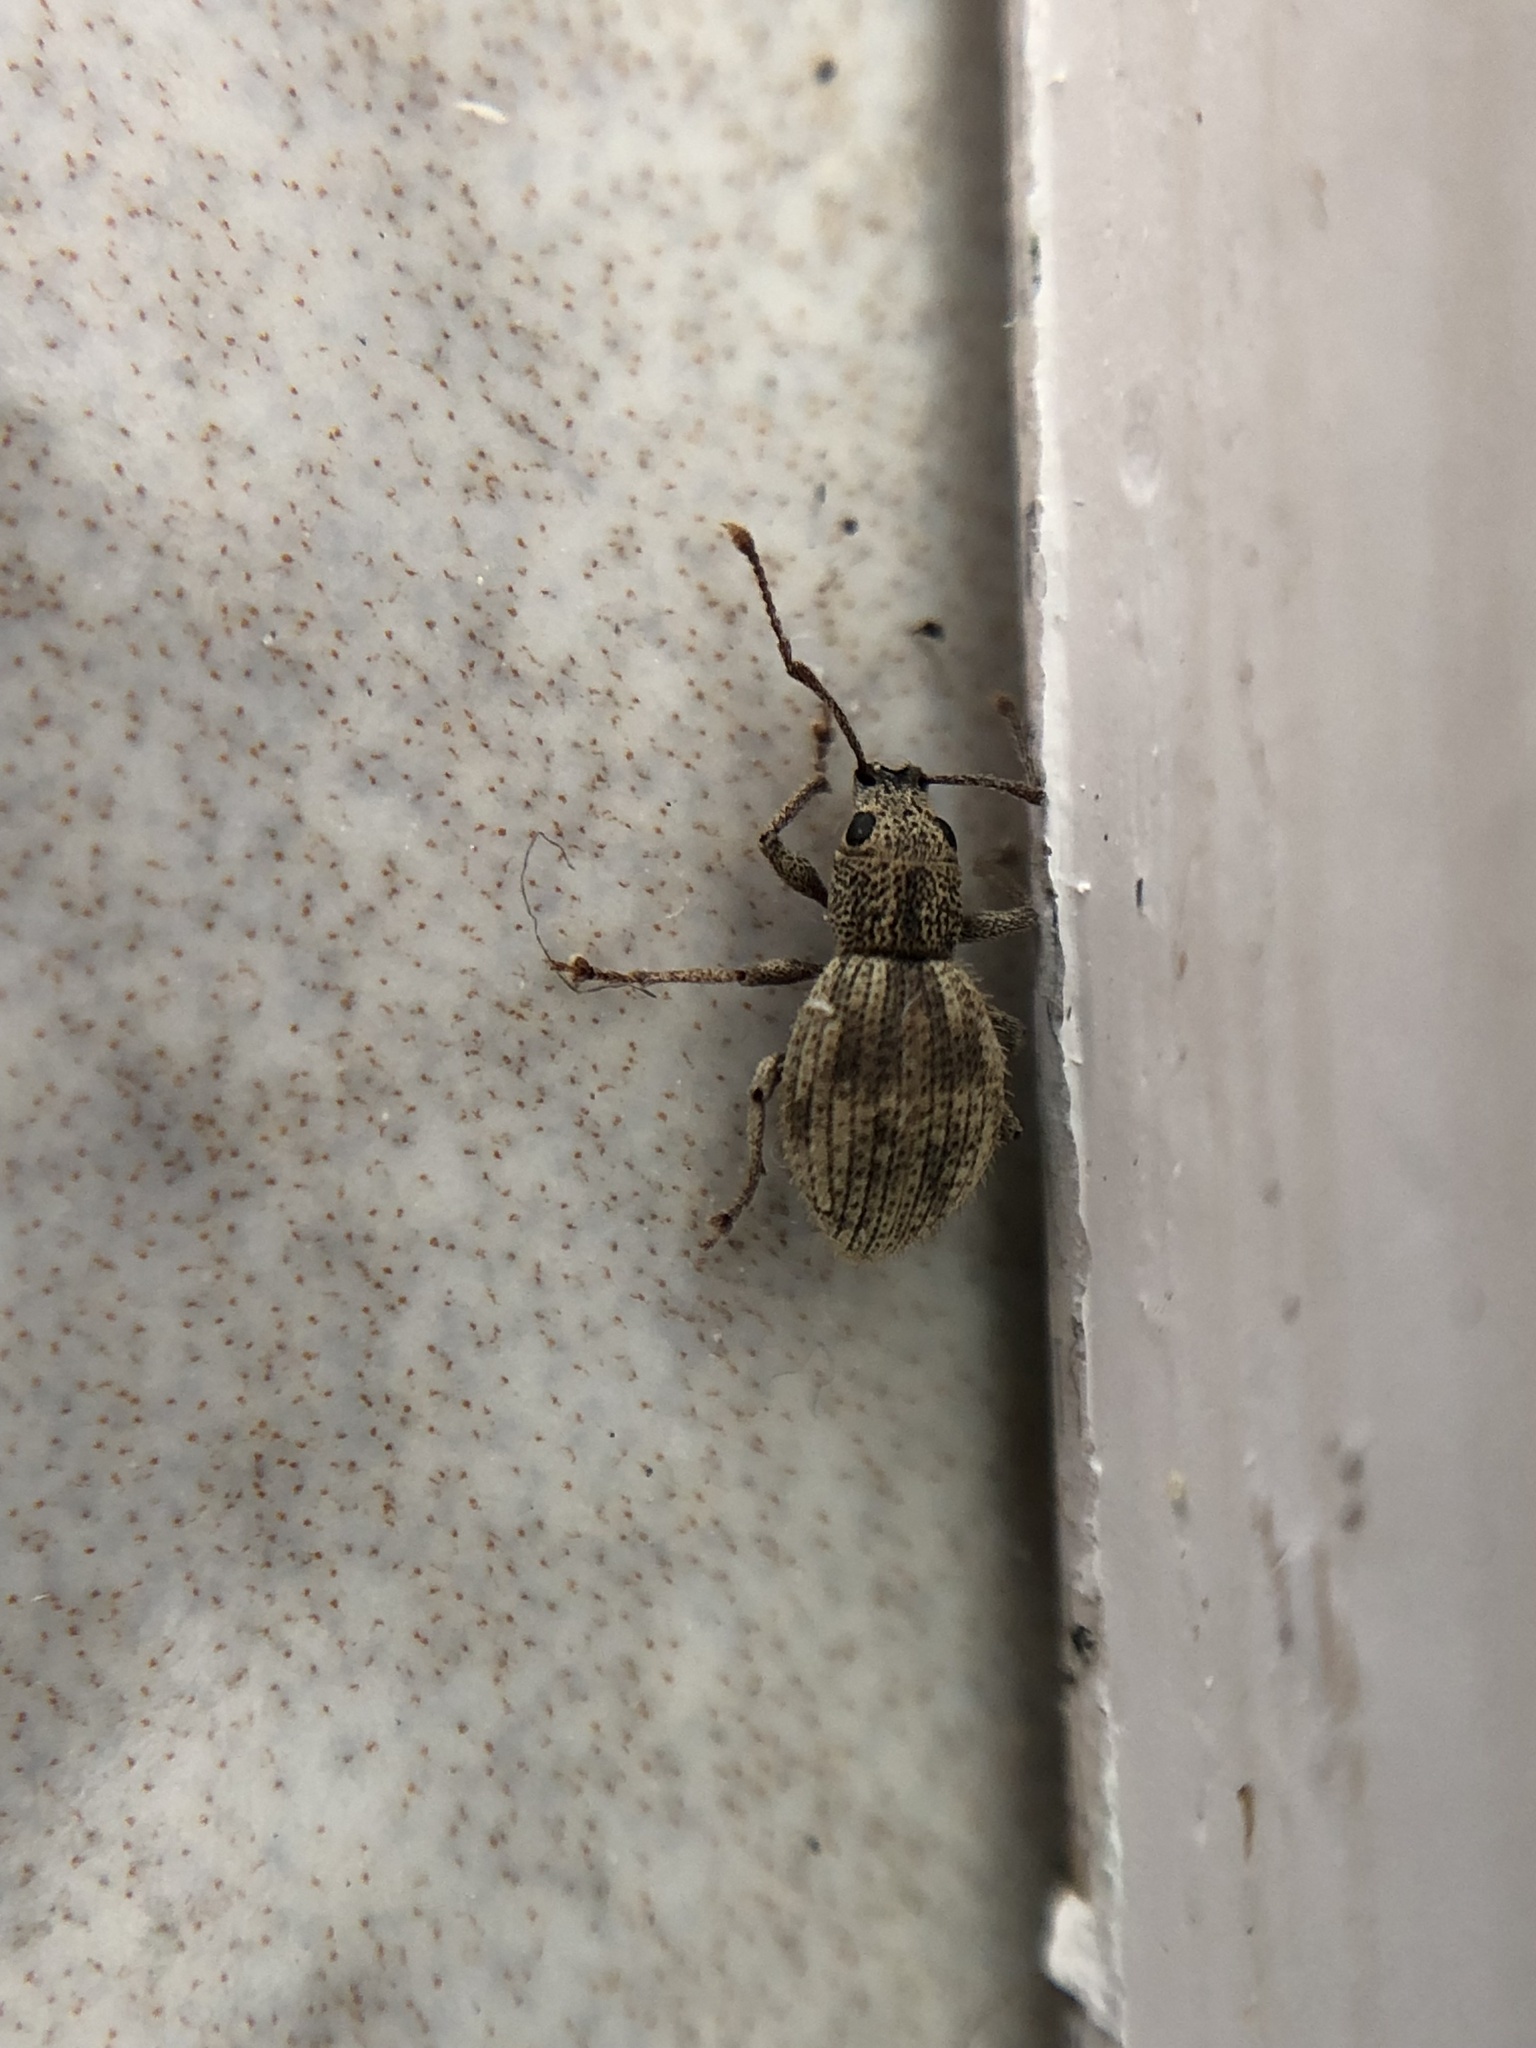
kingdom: Animalia
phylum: Arthropoda
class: Insecta
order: Coleoptera
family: Curculionidae
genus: Calomycterus
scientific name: Calomycterus setarius
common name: Weevil
